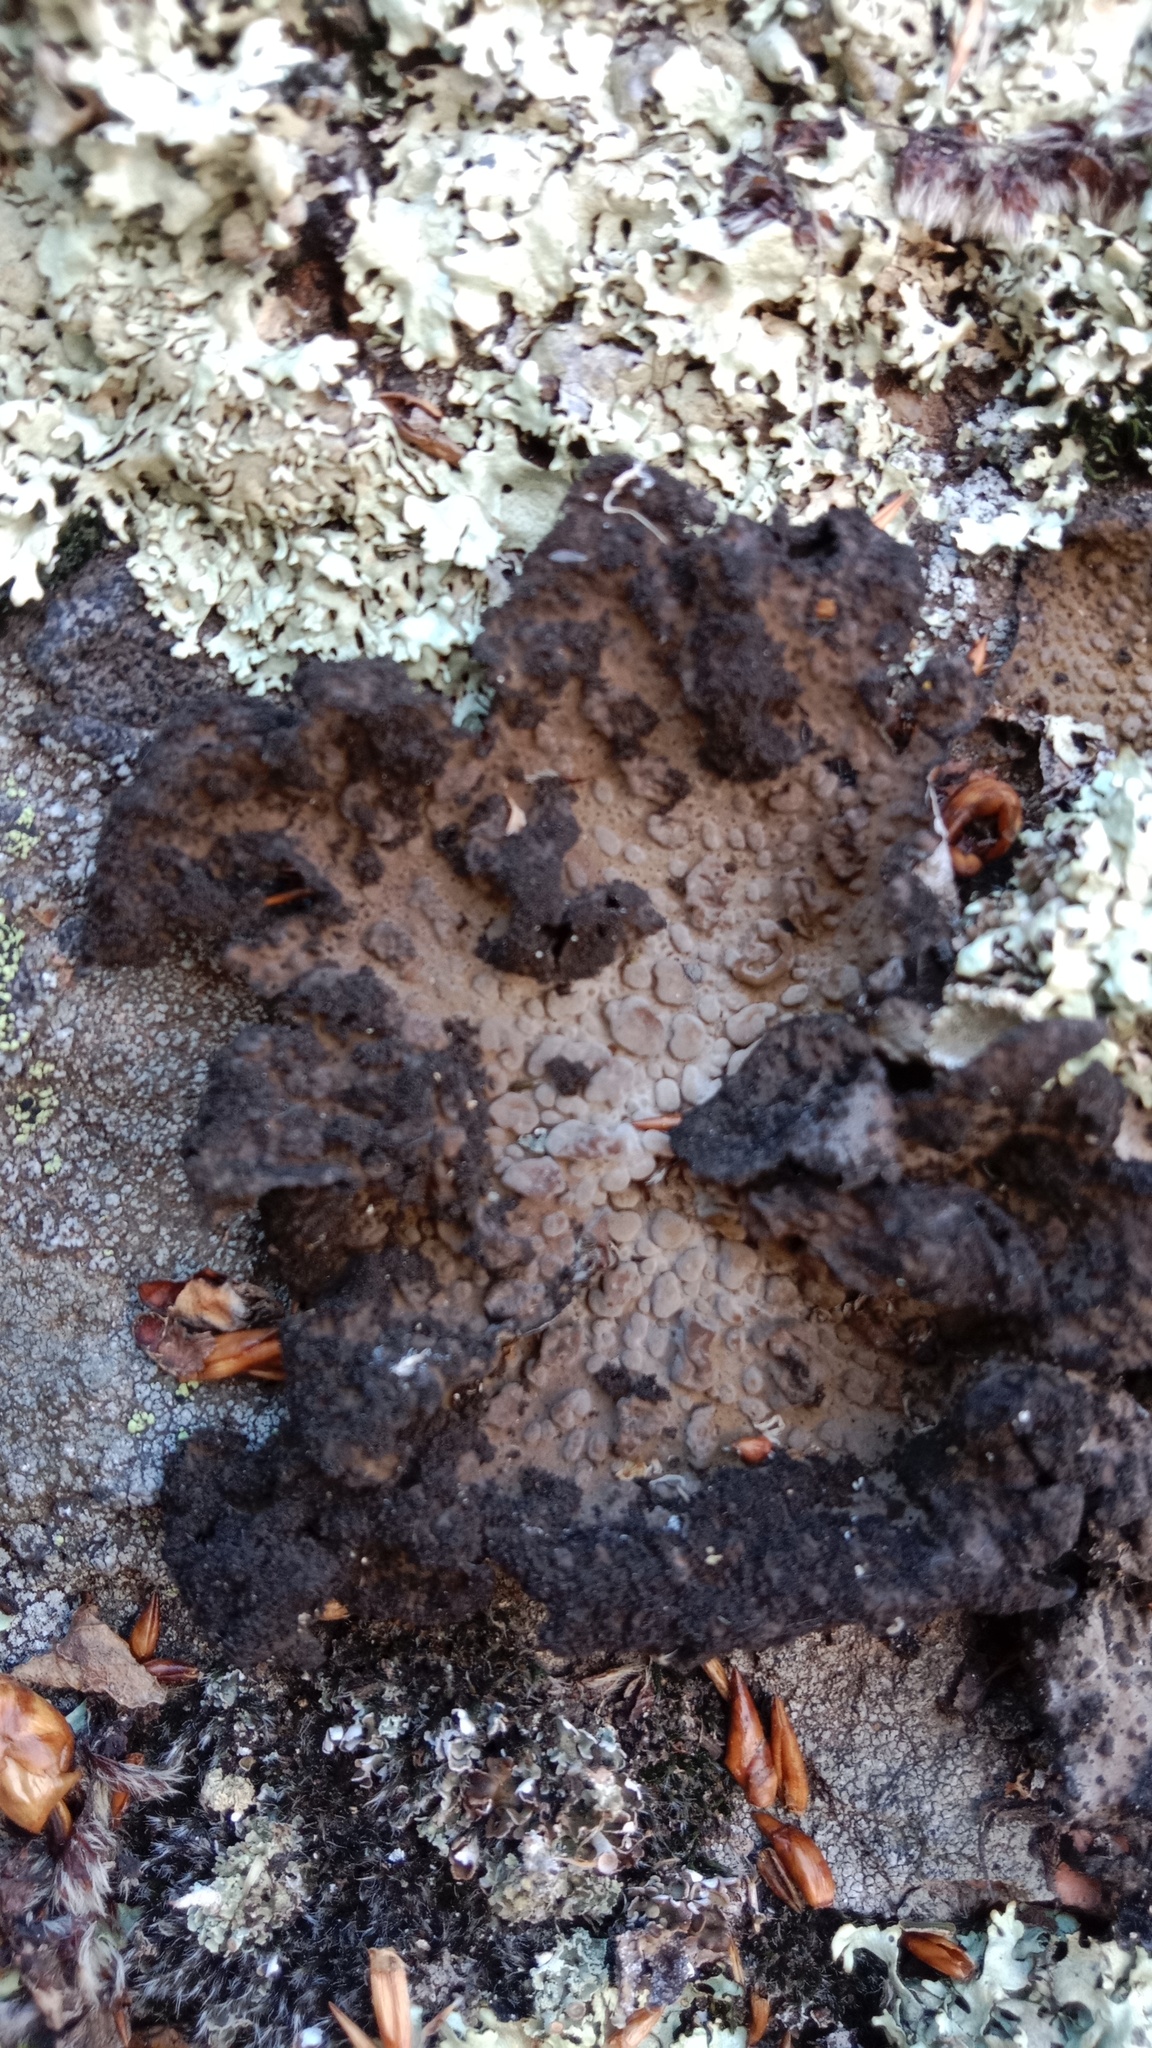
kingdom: Fungi
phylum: Ascomycota
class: Lecanoromycetes
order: Umbilicariales
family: Umbilicariaceae
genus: Lasallia
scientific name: Lasallia pustulata
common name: Blistered toadskin lichen
